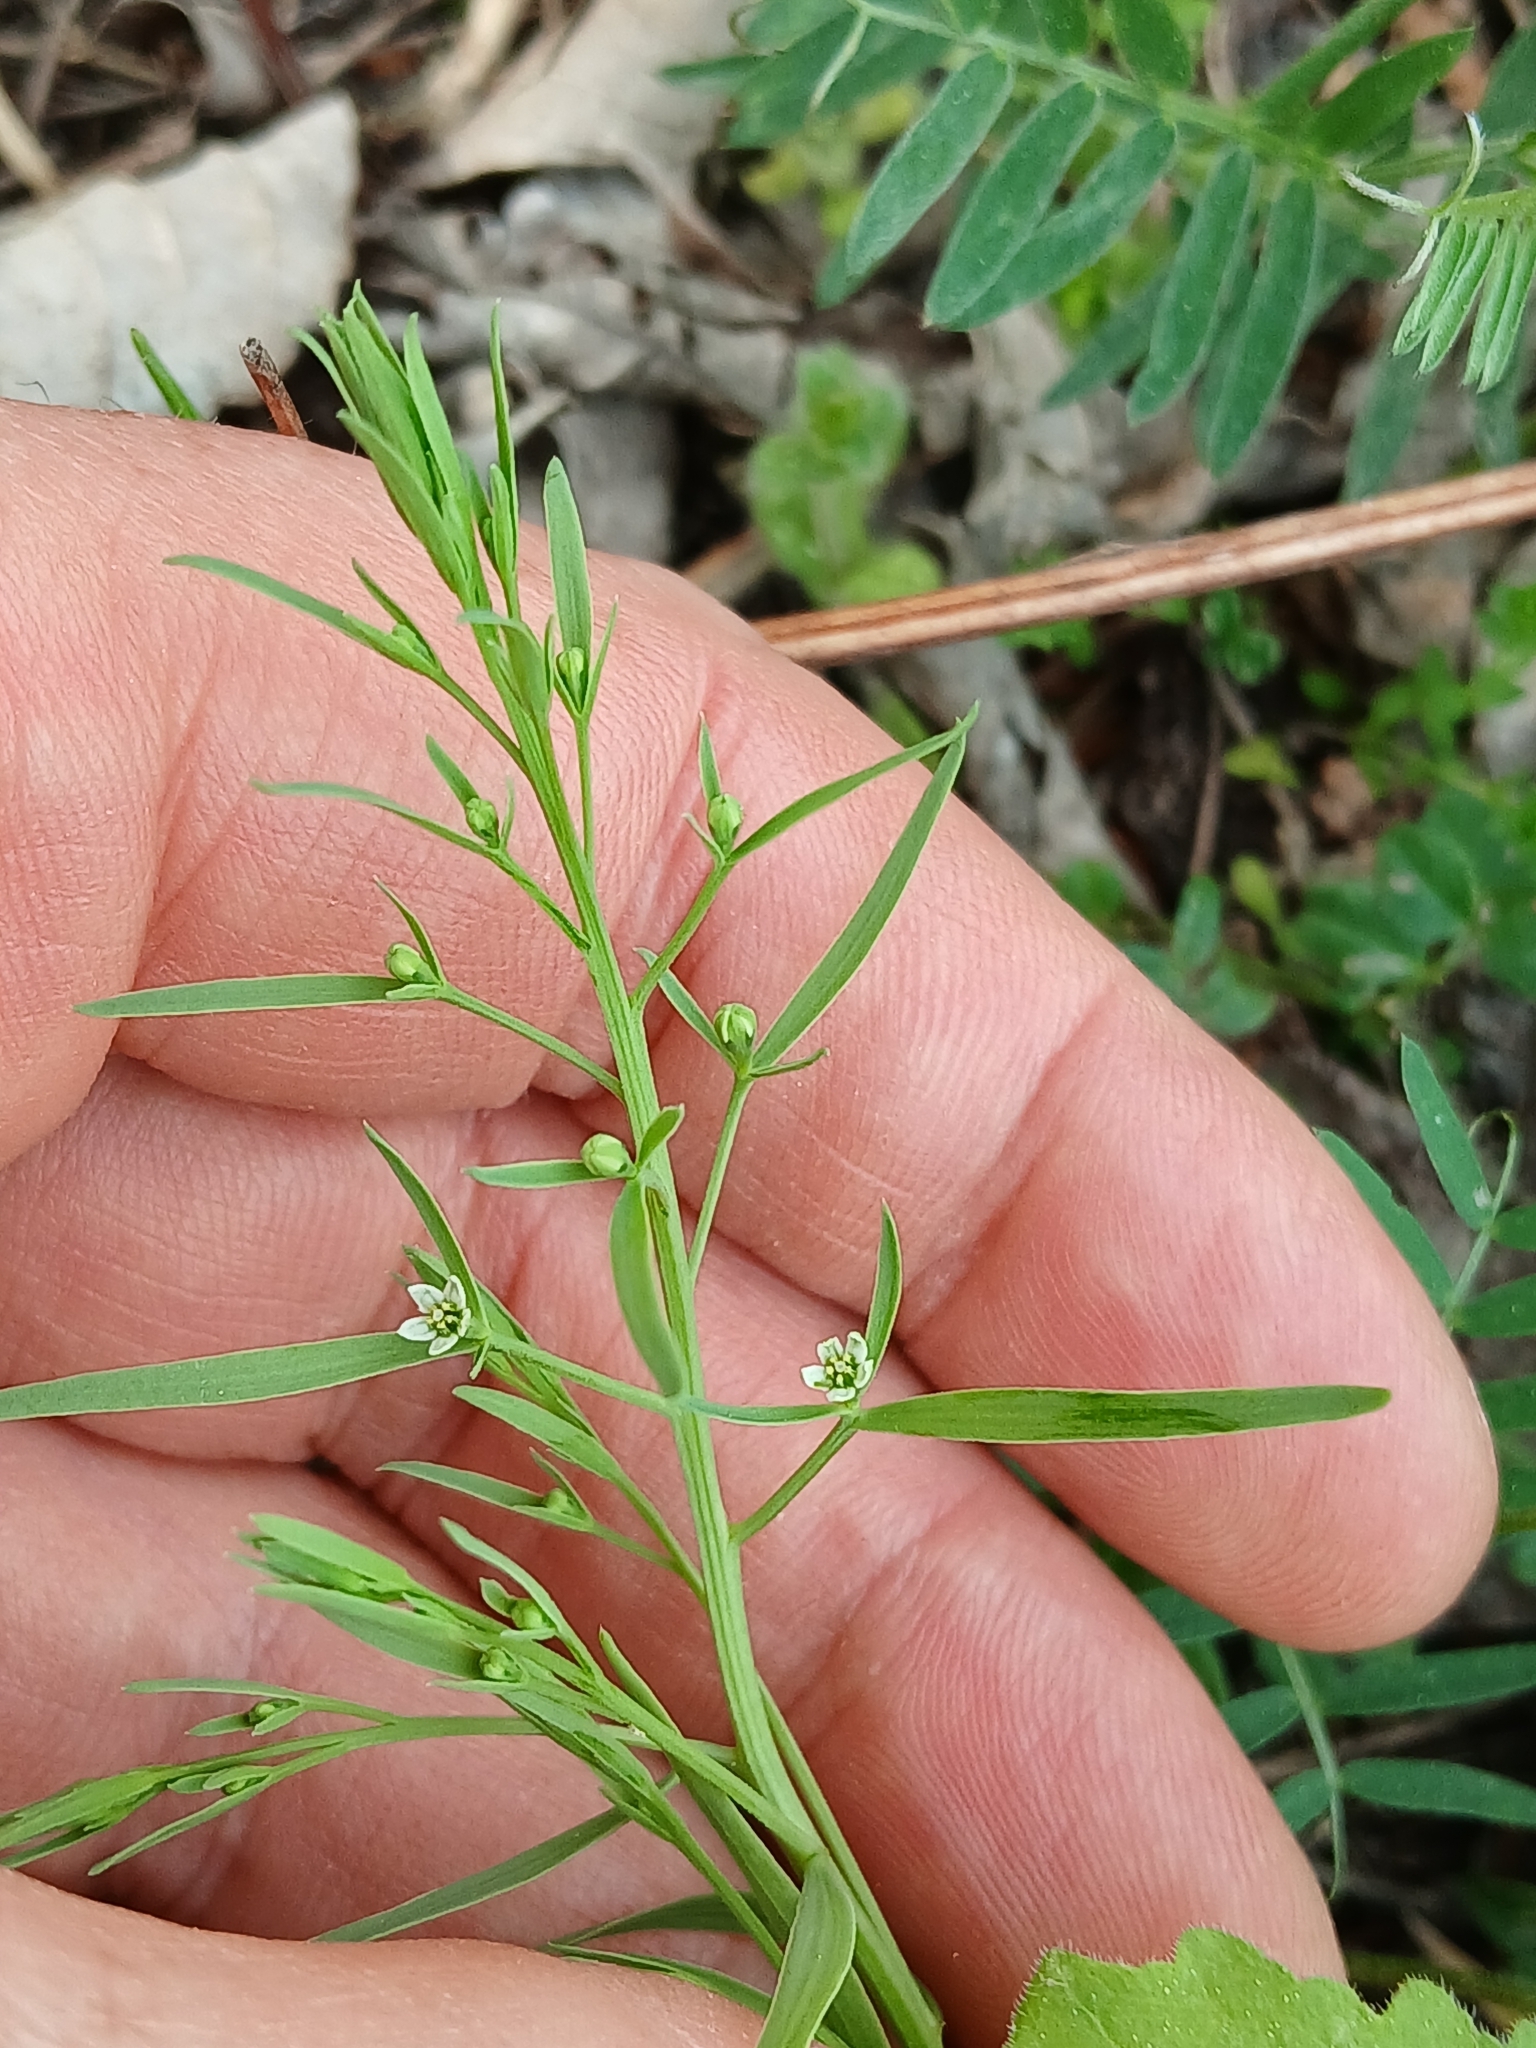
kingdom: Plantae
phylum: Tracheophyta
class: Magnoliopsida
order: Santalales
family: Thesiaceae
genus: Thesium
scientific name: Thesium ramosum
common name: Field thesium
